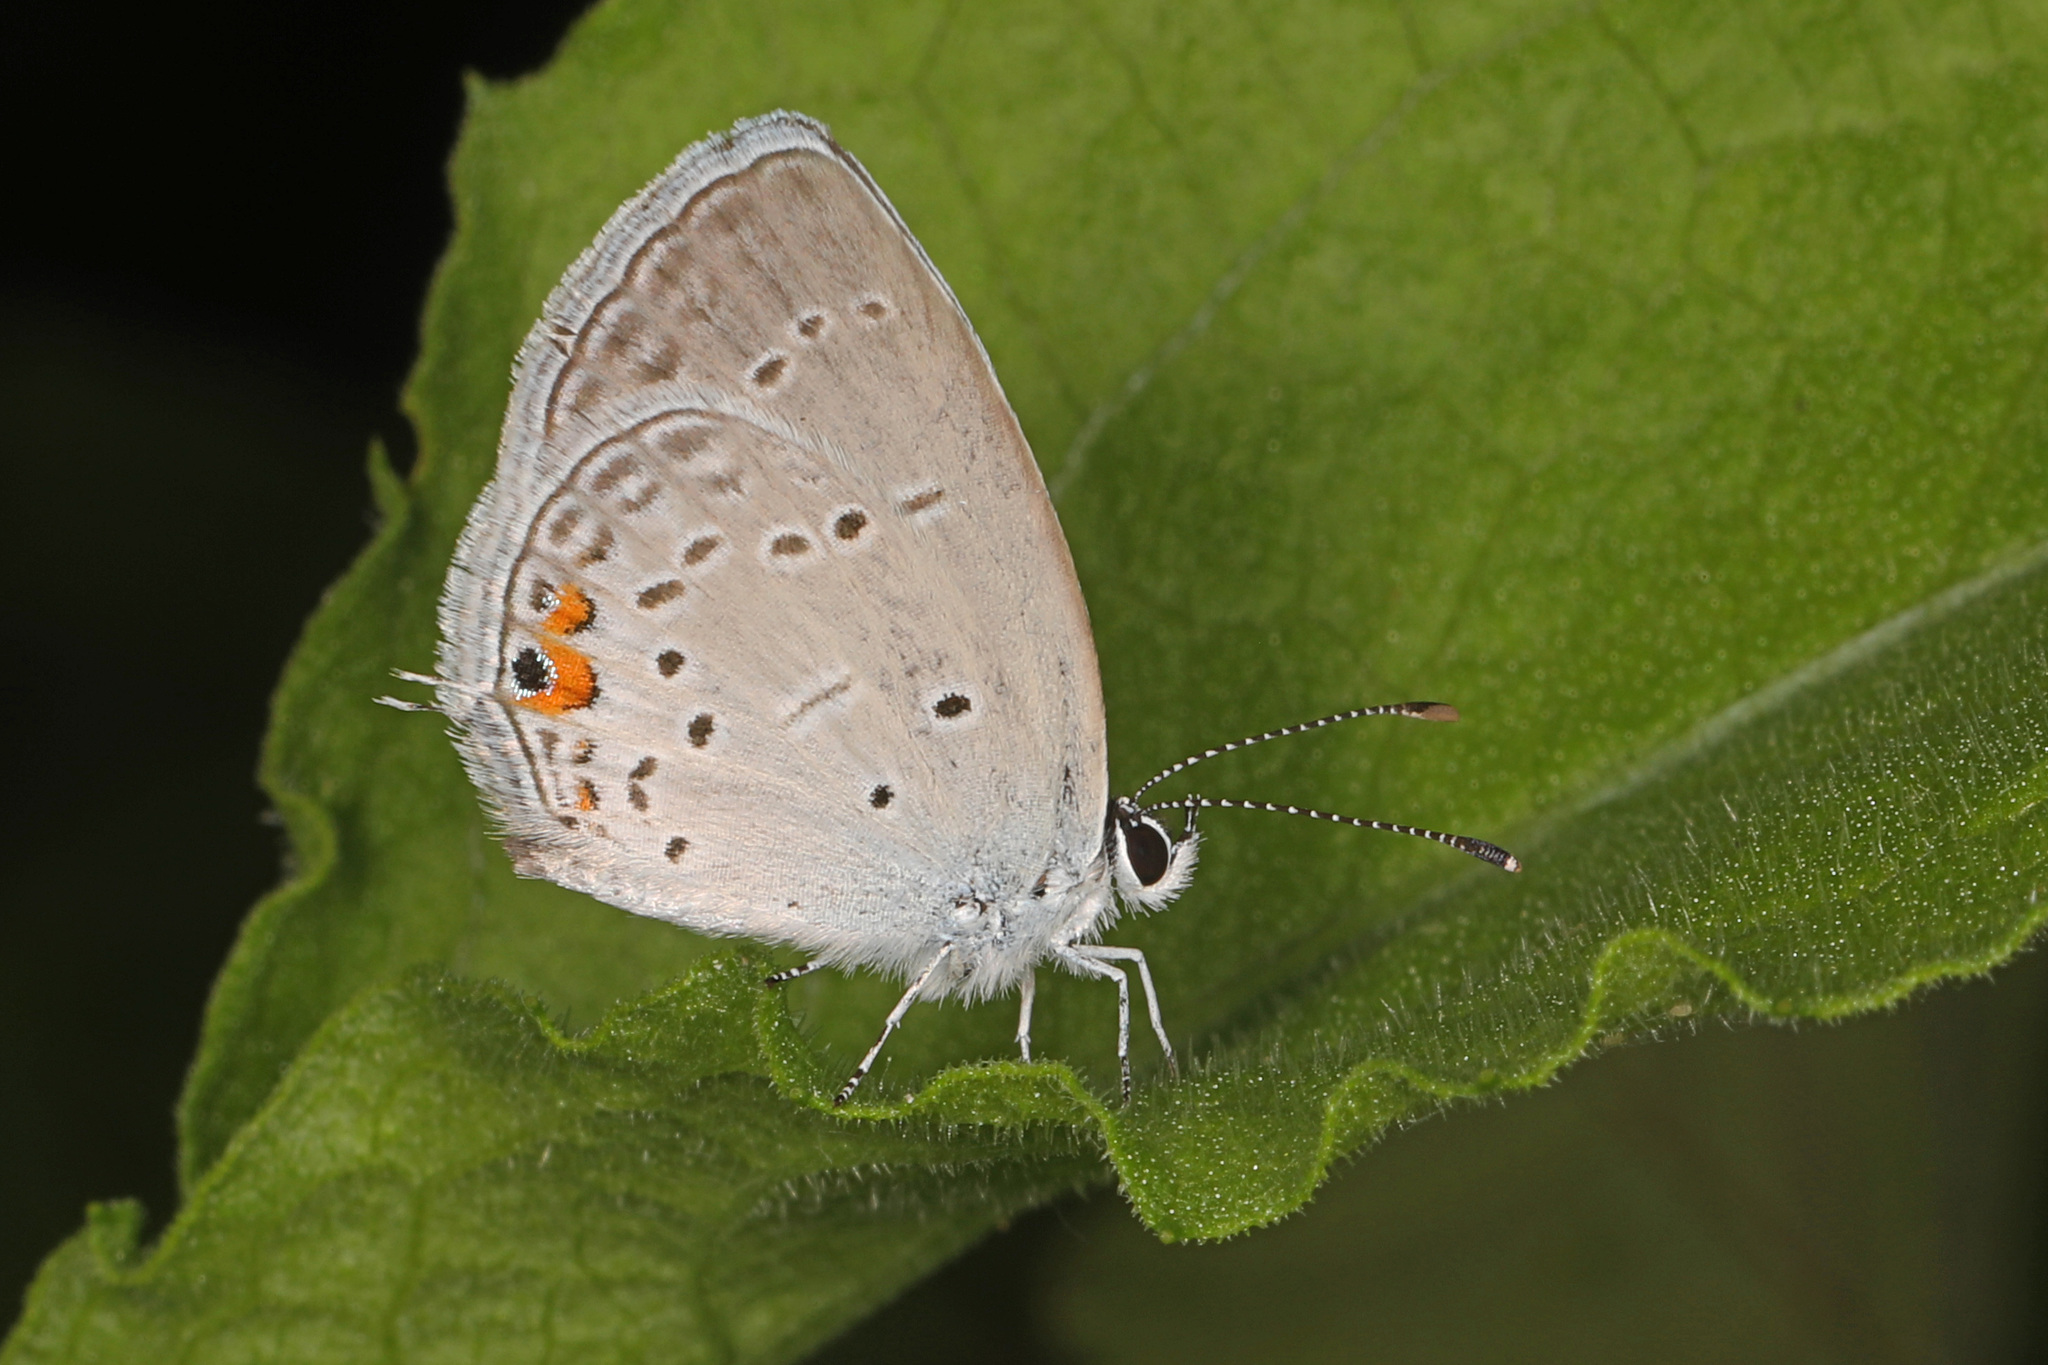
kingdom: Animalia
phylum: Arthropoda
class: Insecta
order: Lepidoptera
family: Lycaenidae
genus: Elkalyce
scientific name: Elkalyce comyntas
